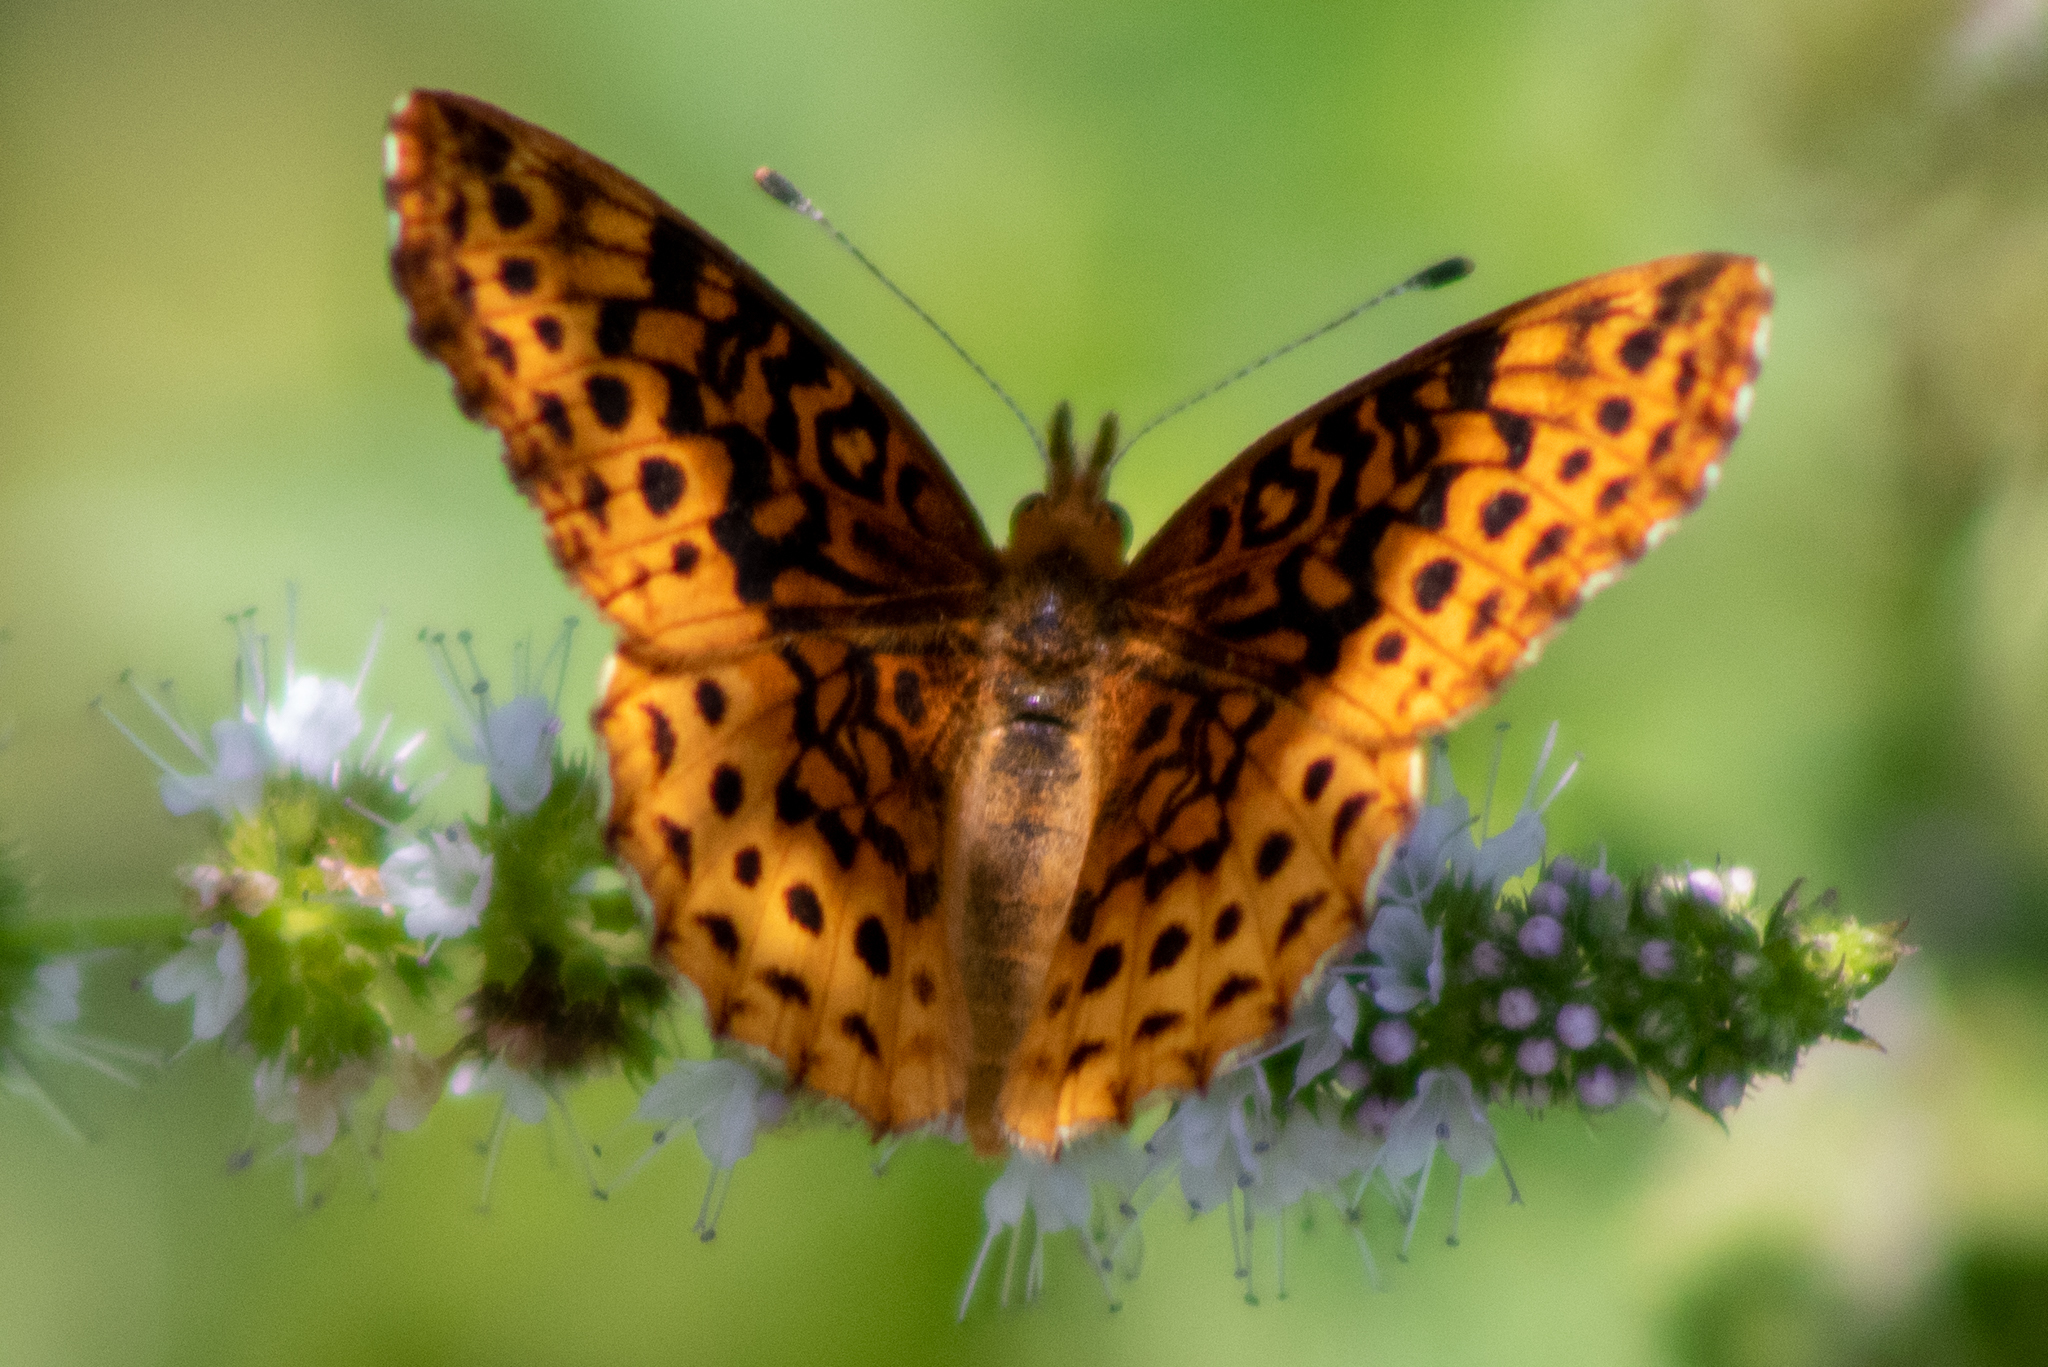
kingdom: Animalia
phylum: Arthropoda
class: Insecta
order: Lepidoptera
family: Nymphalidae
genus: Clossiana
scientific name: Clossiana toddi
